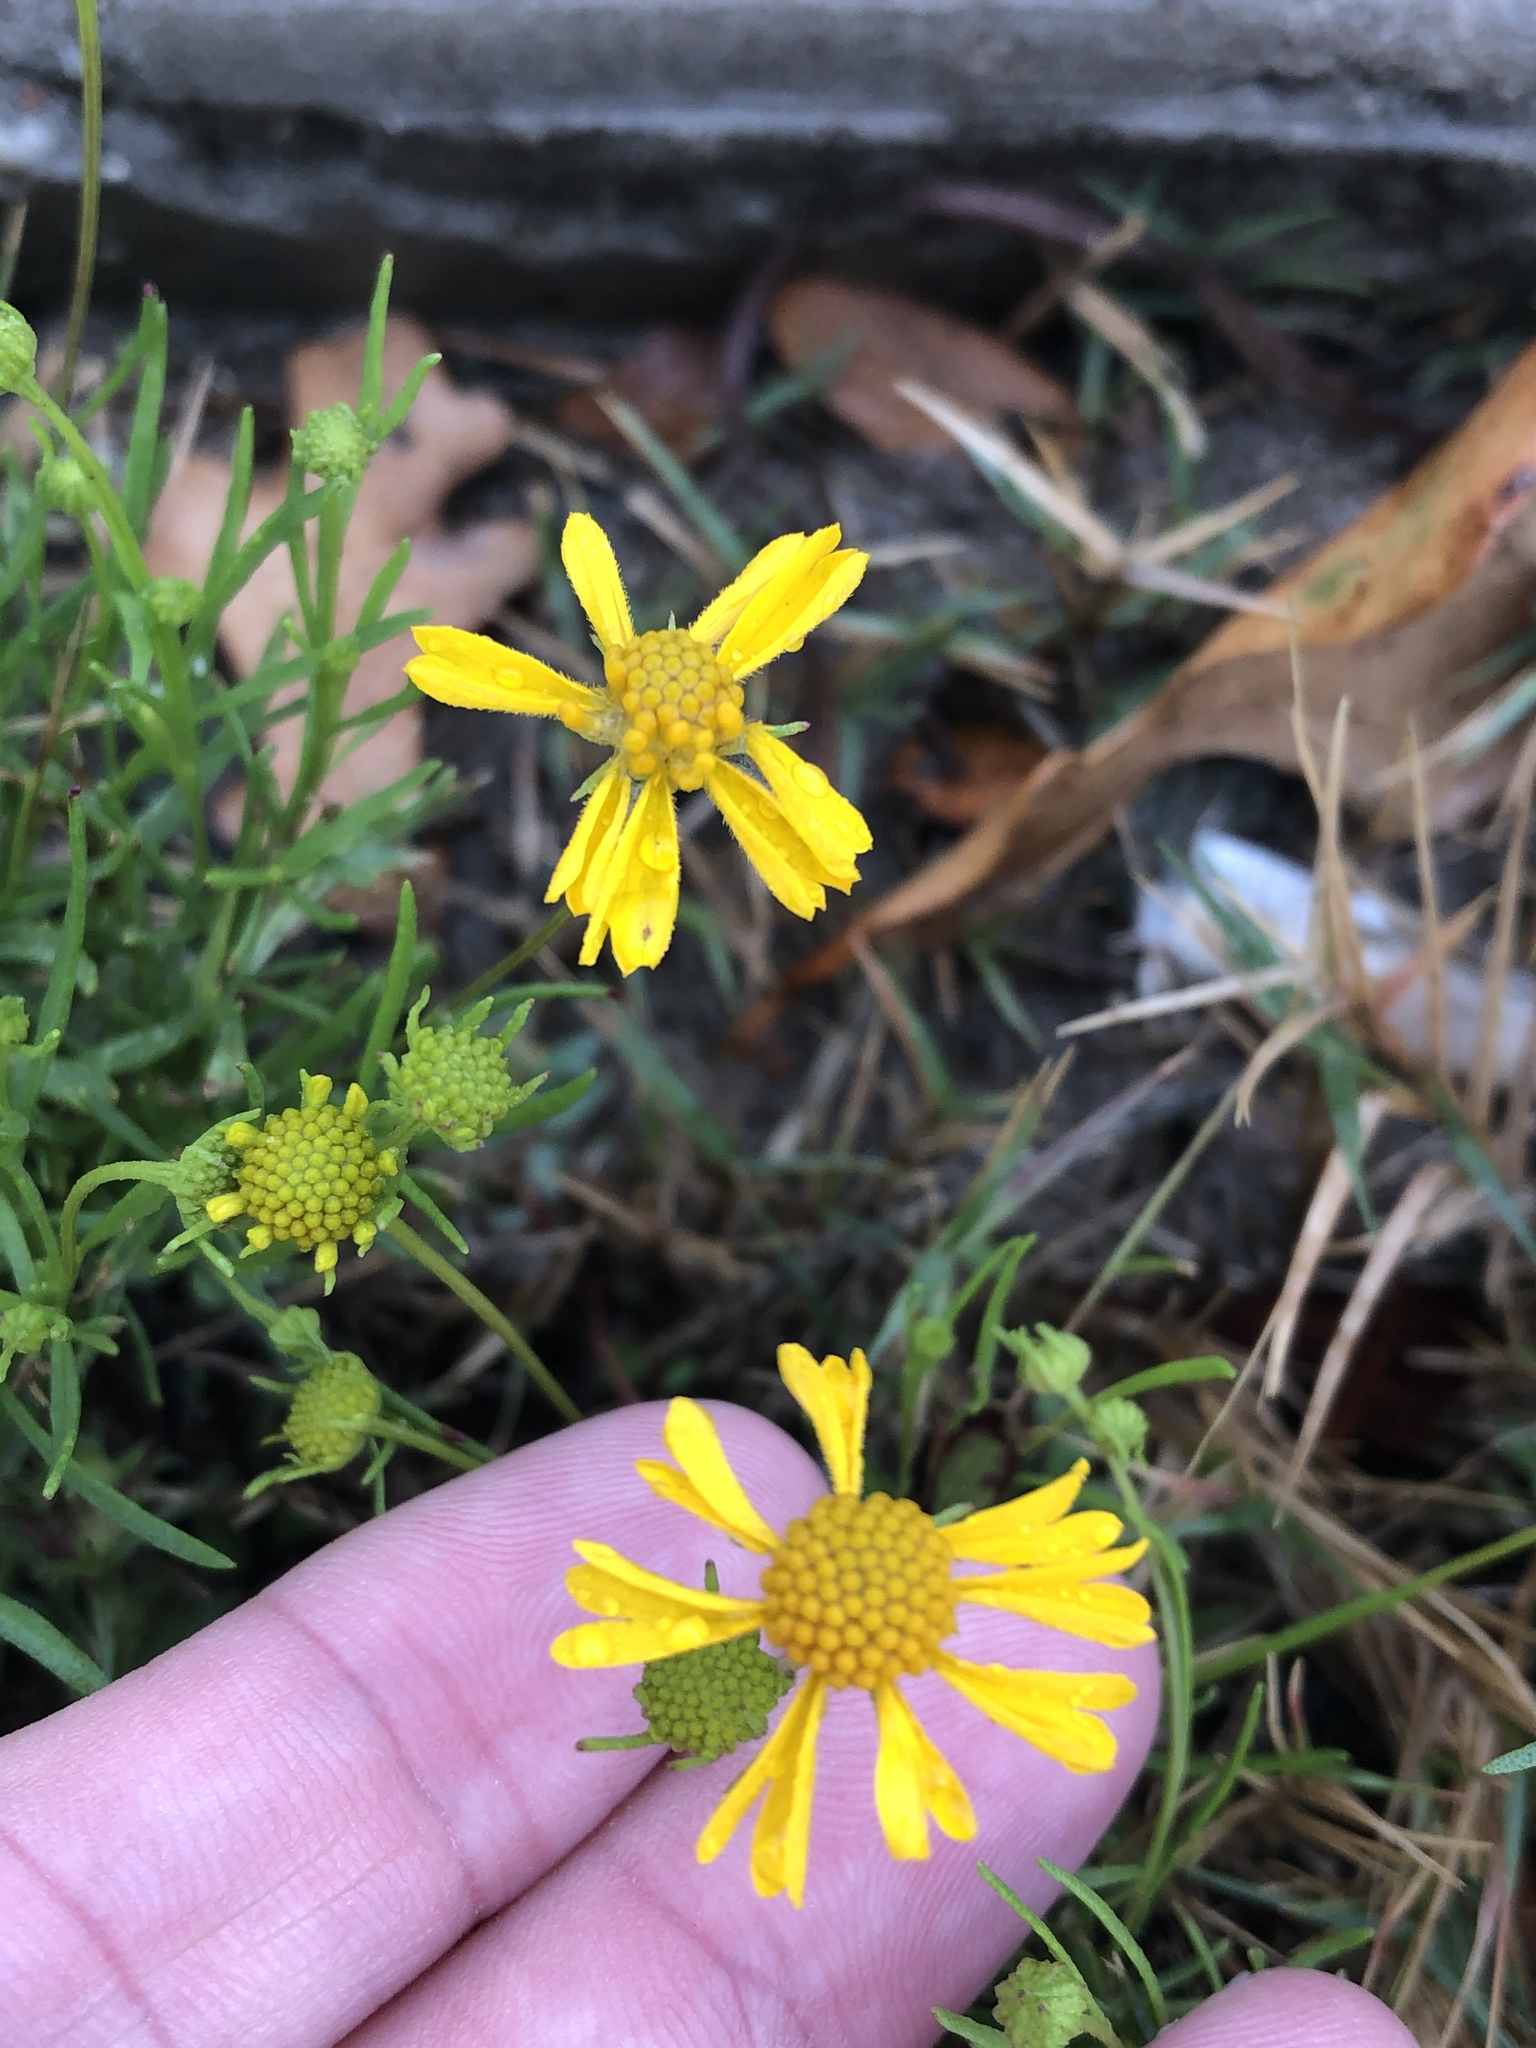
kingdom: Plantae
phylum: Tracheophyta
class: Magnoliopsida
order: Asterales
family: Asteraceae
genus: Helenium
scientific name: Helenium amarum
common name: Bitter sneezeweed
